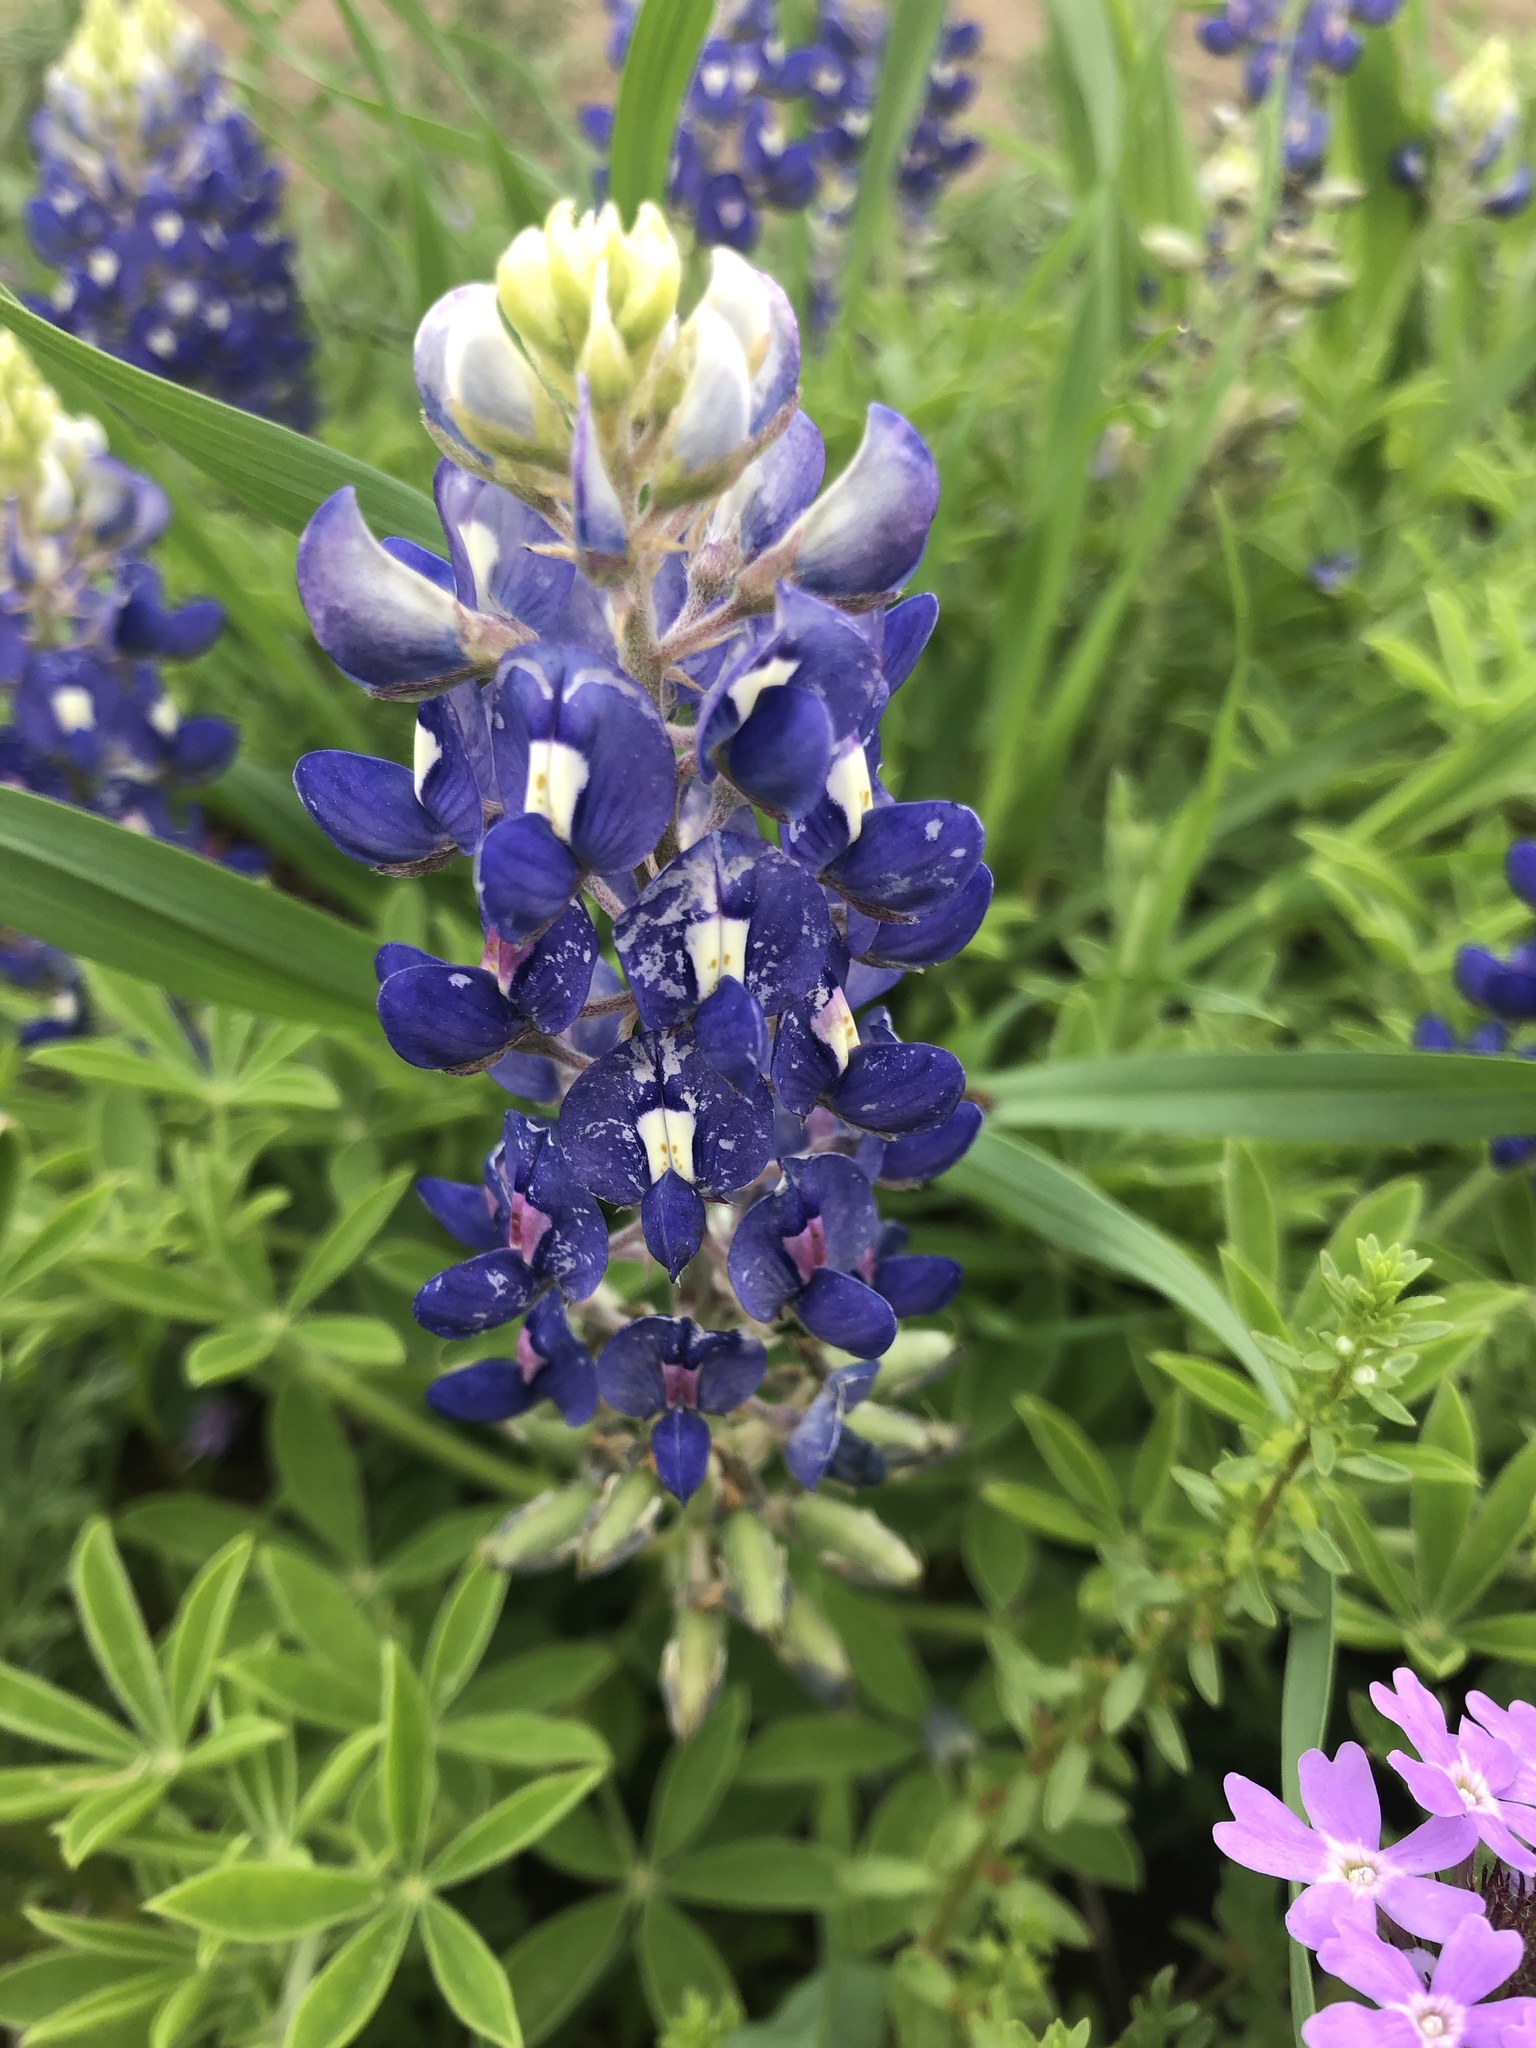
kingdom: Plantae
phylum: Tracheophyta
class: Magnoliopsida
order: Fabales
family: Fabaceae
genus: Lupinus
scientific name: Lupinus texensis
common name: Texas bluebonnet
